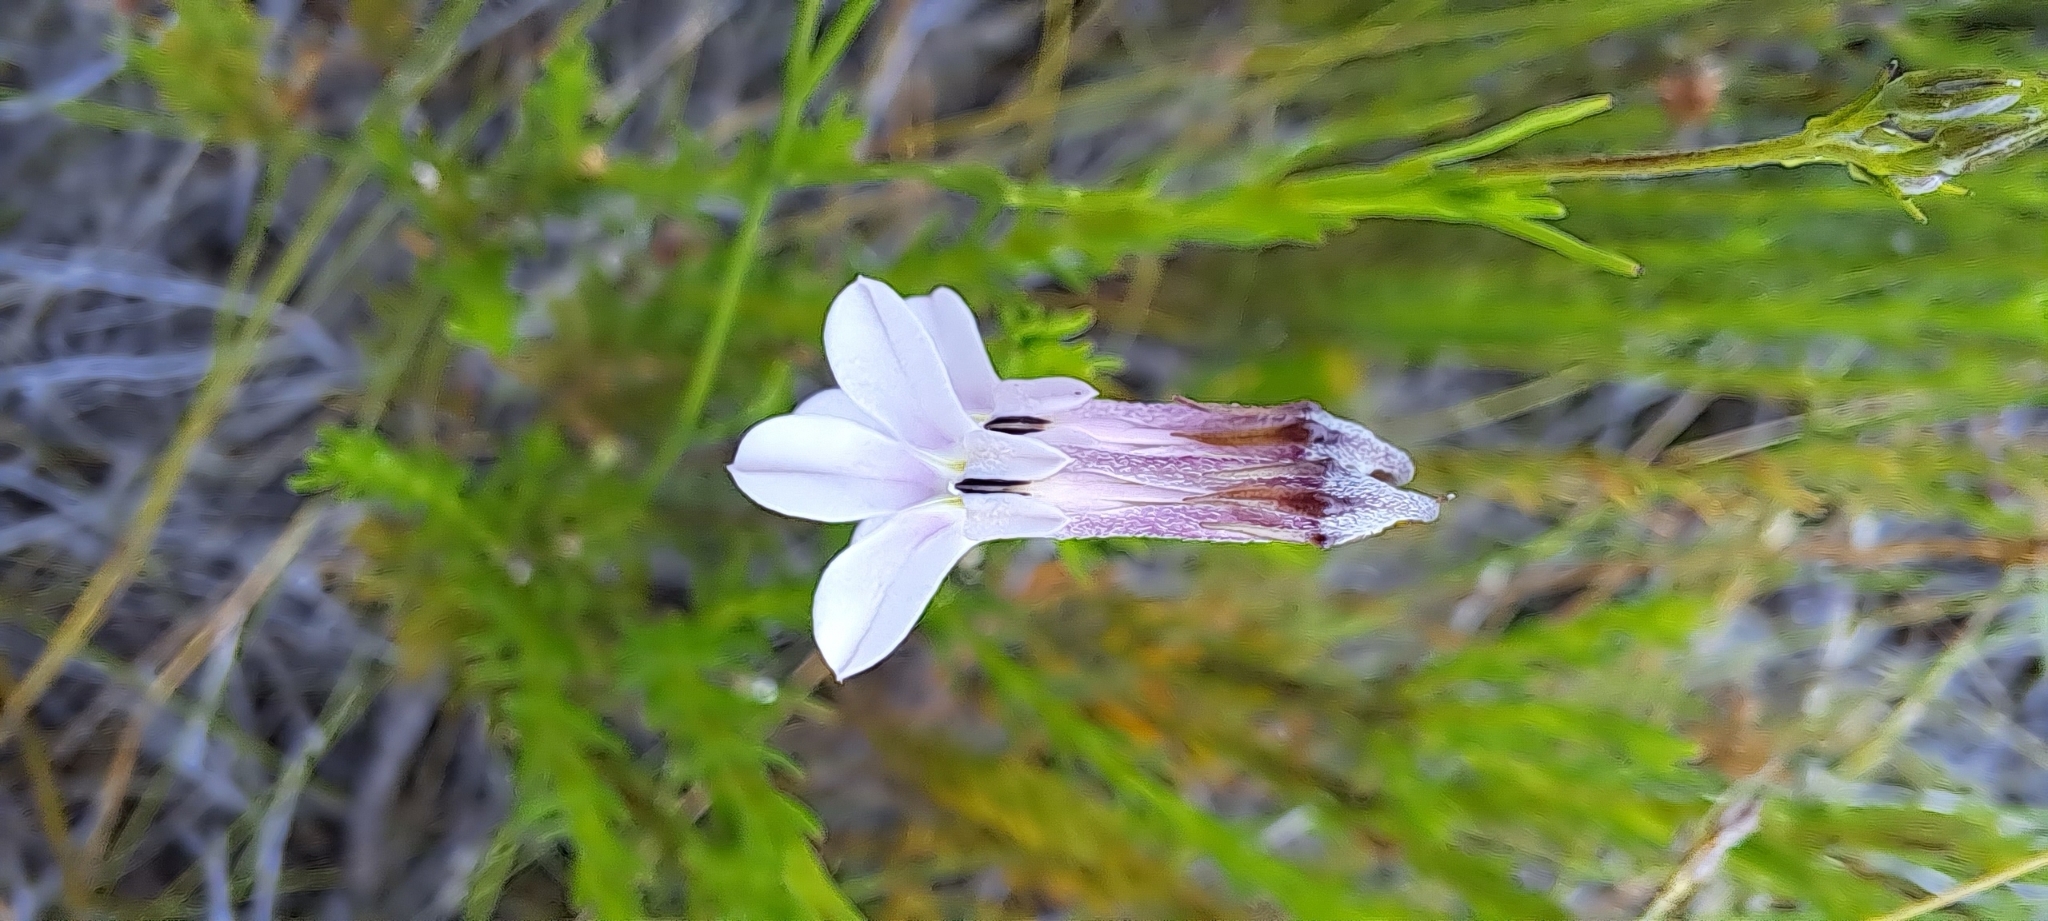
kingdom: Plantae
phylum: Tracheophyta
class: Magnoliopsida
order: Asterales
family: Campanulaceae
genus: Lobelia
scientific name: Lobelia pinifolia
